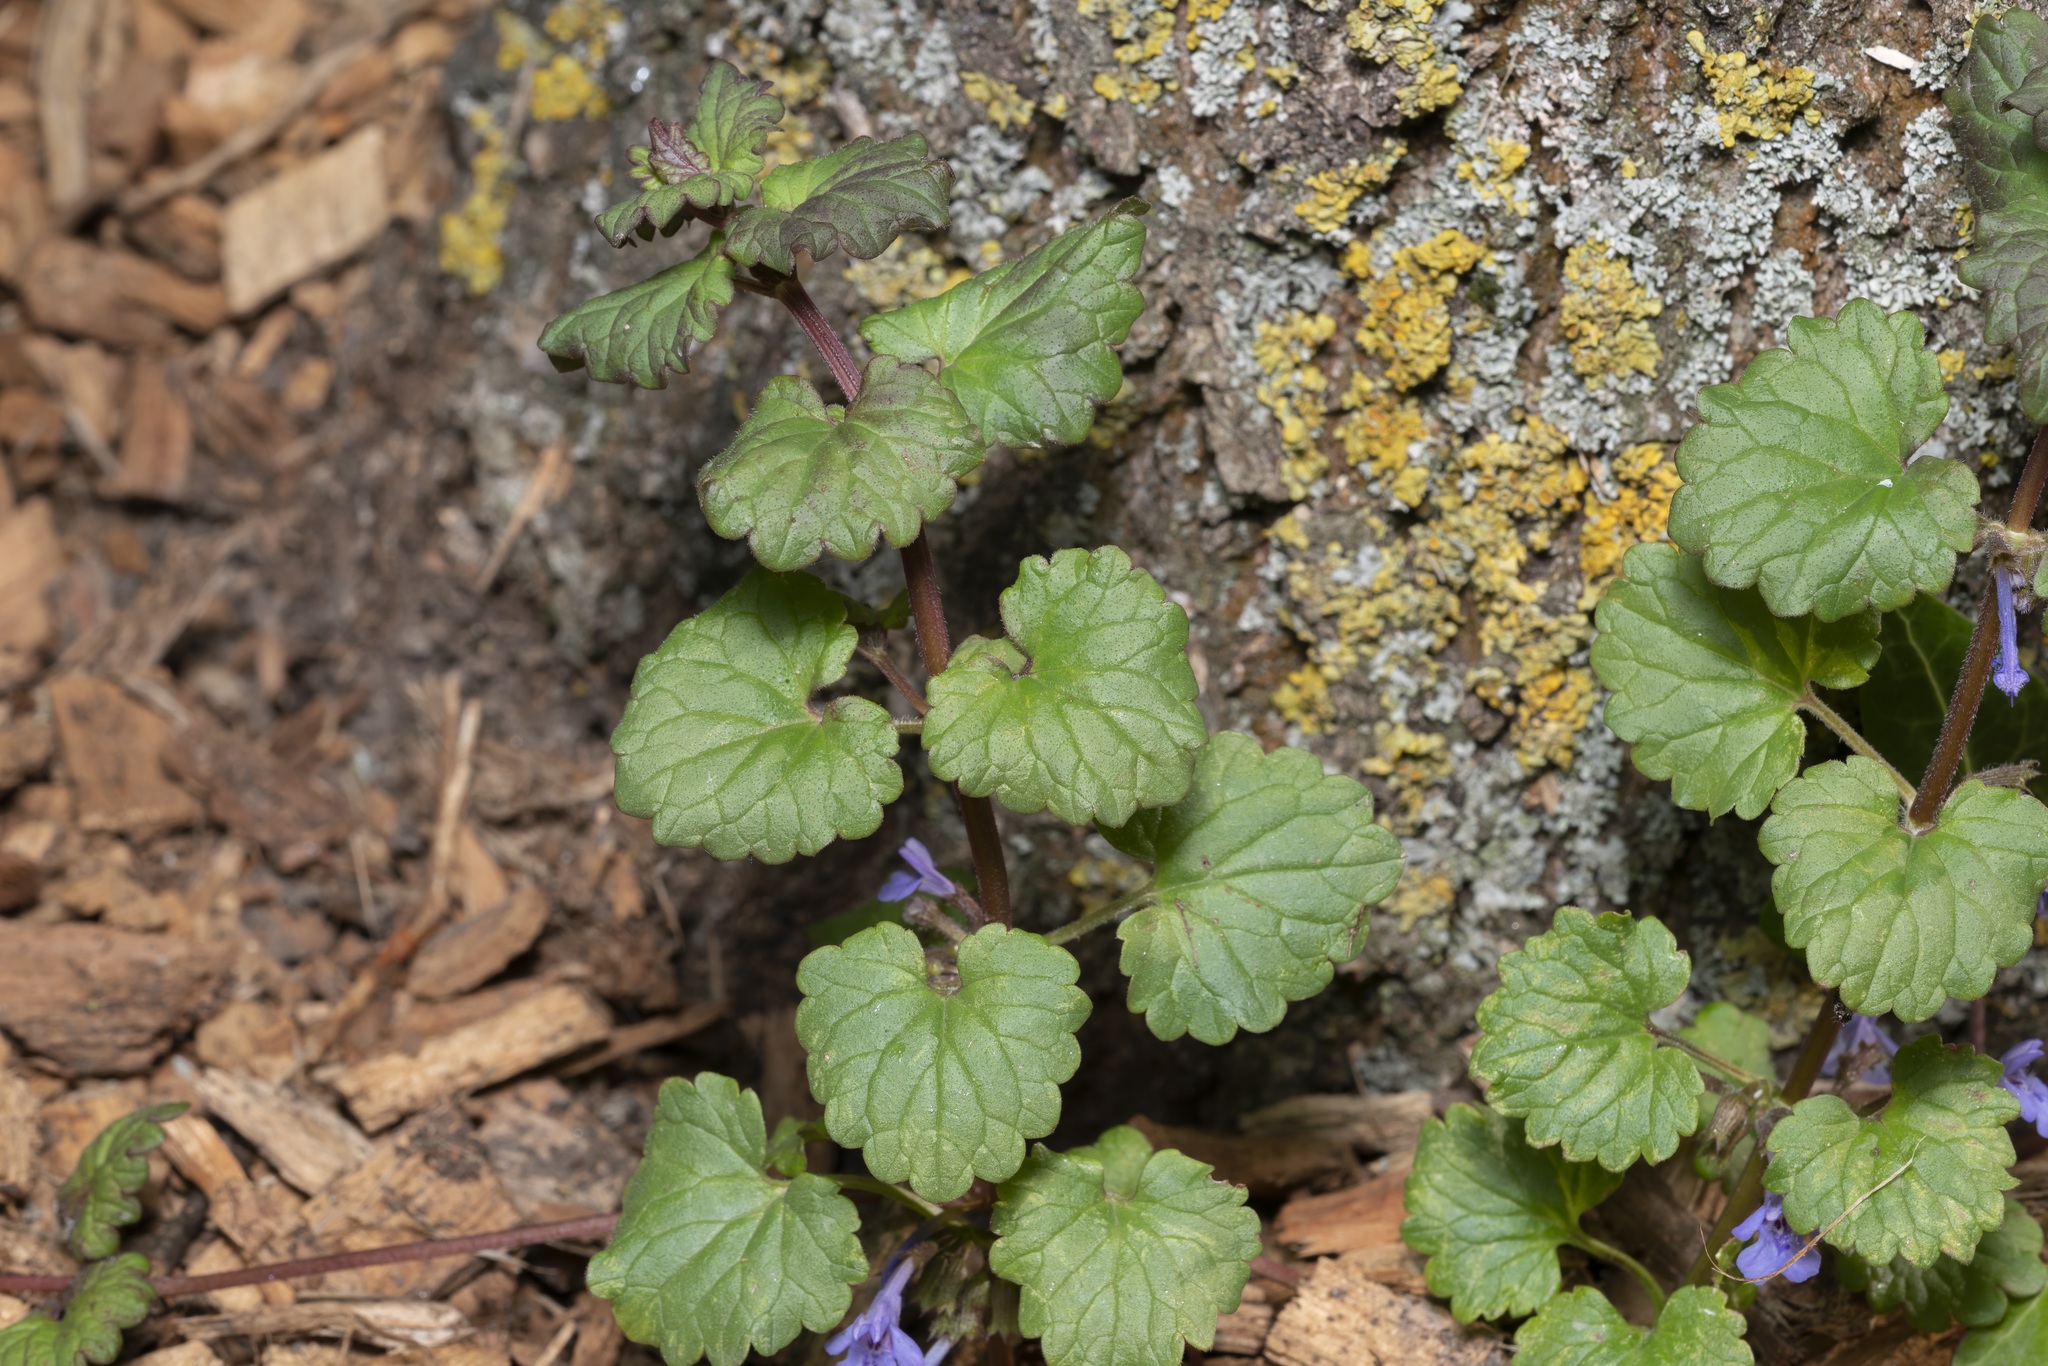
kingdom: Plantae
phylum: Tracheophyta
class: Magnoliopsida
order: Lamiales
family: Lamiaceae
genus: Glechoma
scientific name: Glechoma hederacea
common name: Ground ivy
